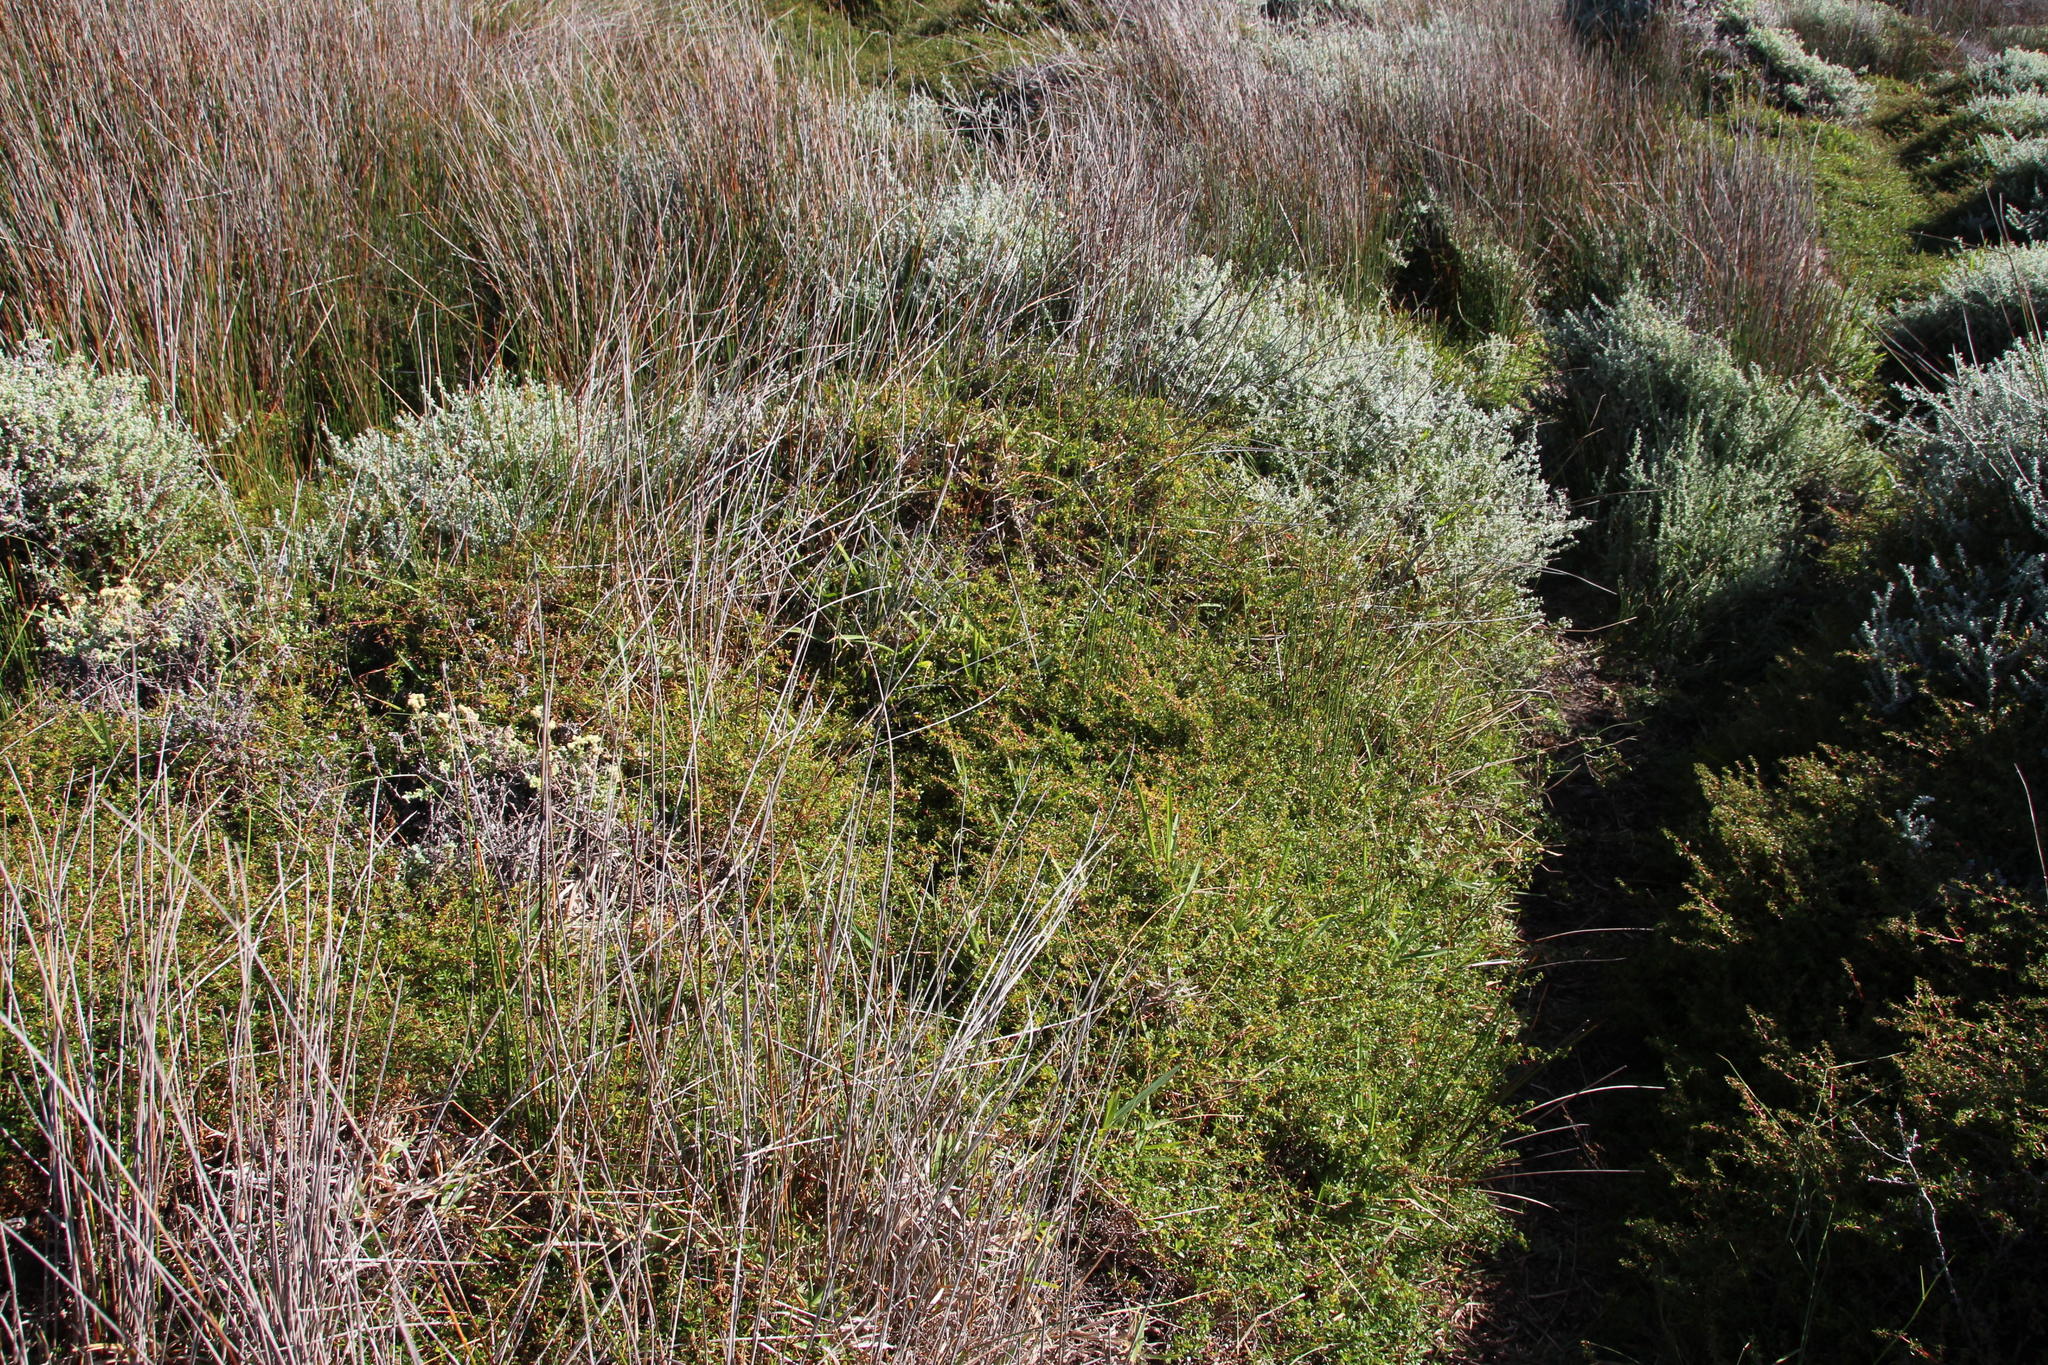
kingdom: Plantae
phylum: Tracheophyta
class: Magnoliopsida
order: Rosales
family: Rosaceae
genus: Cliffortia
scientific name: Cliffortia ferruginea
